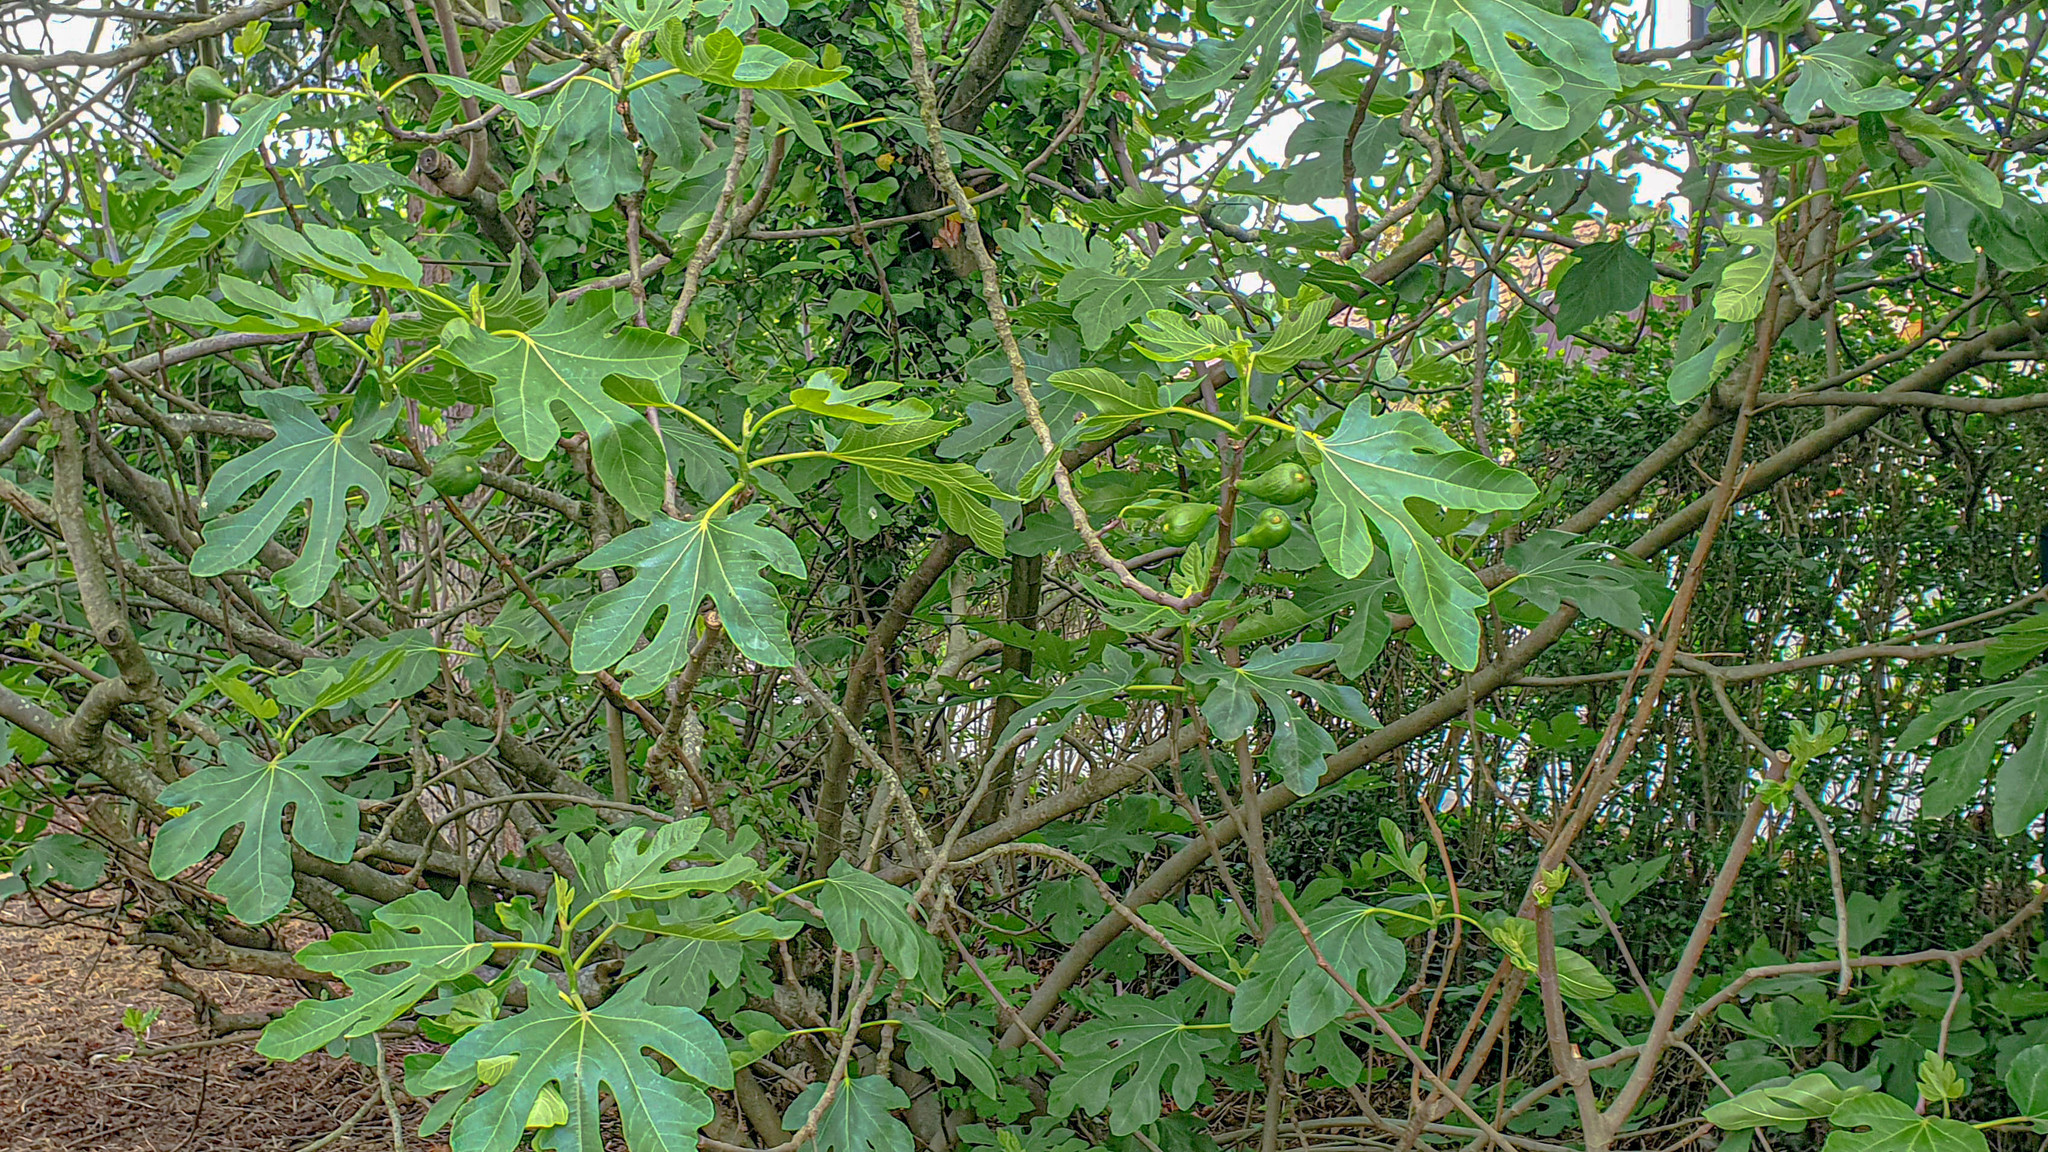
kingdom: Plantae
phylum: Tracheophyta
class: Magnoliopsida
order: Rosales
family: Moraceae
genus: Ficus
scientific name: Ficus carica
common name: Fig
